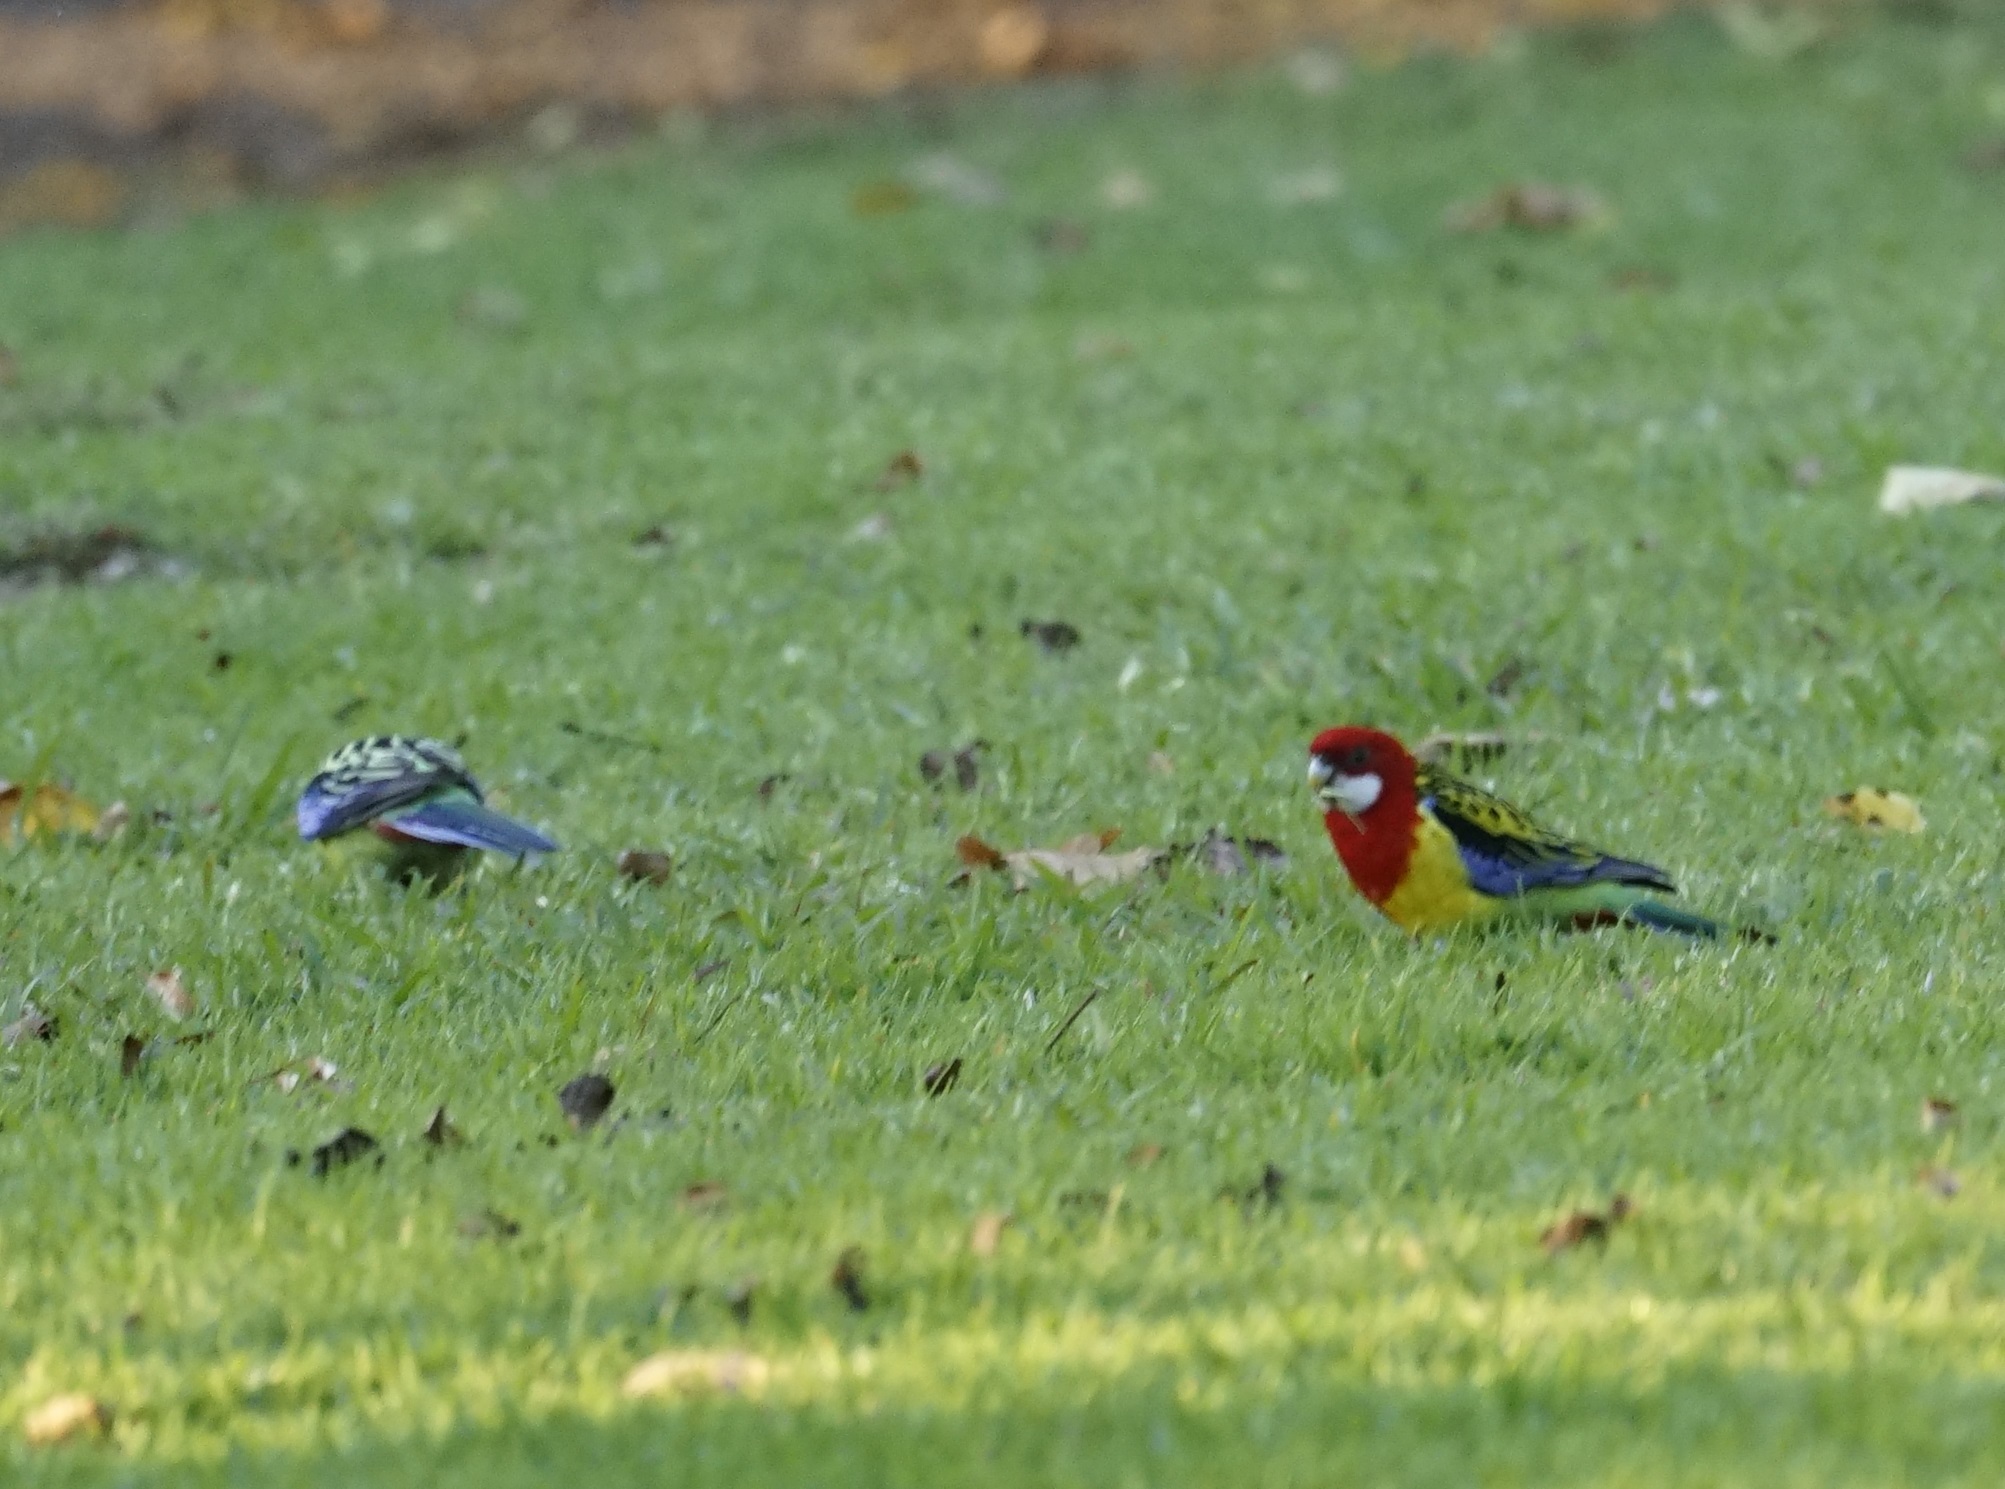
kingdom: Animalia
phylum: Chordata
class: Aves
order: Psittaciformes
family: Psittacidae
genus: Platycercus
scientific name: Platycercus eximius
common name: Eastern rosella
